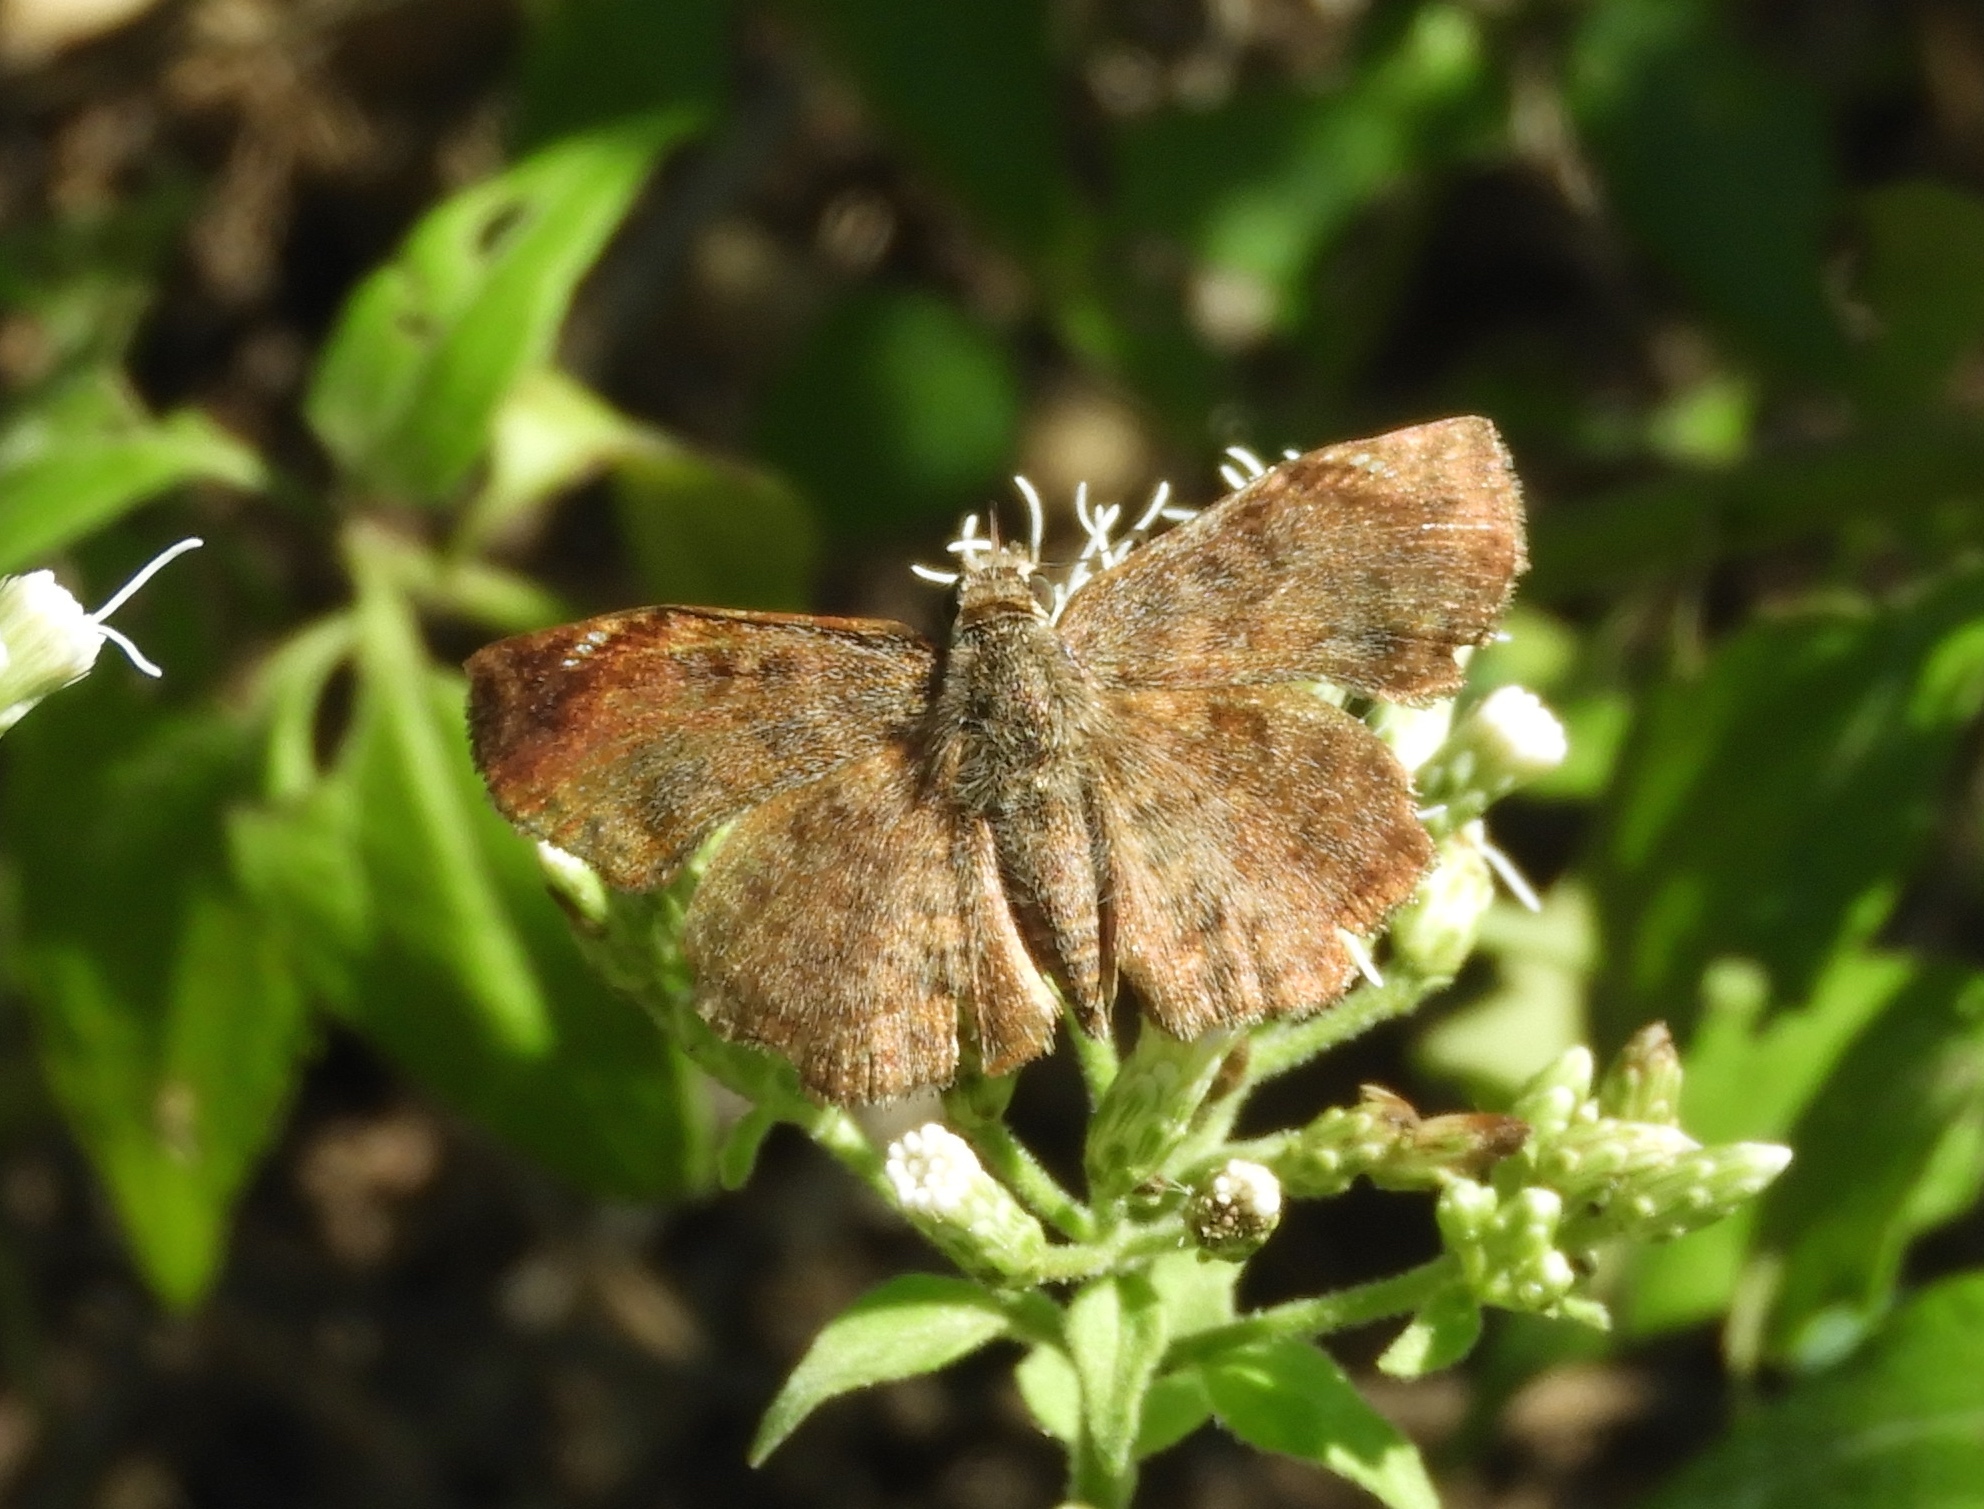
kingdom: Animalia
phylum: Arthropoda
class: Insecta
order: Lepidoptera
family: Hesperiidae
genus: Antigonus
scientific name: Antigonus erosus
